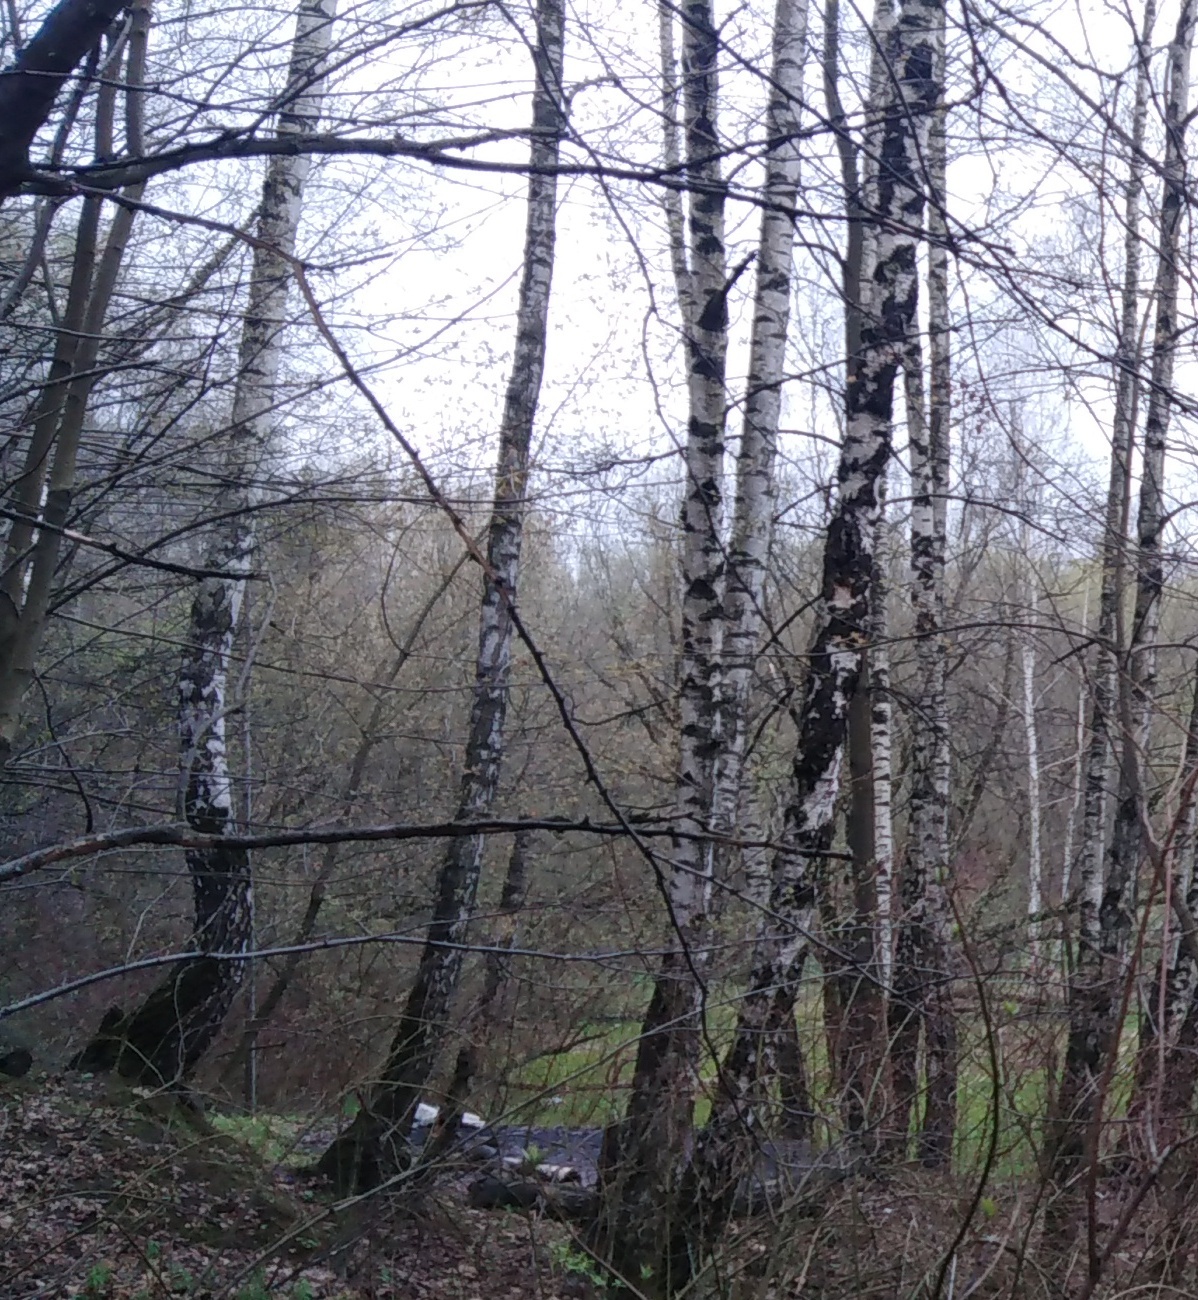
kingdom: Plantae
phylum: Tracheophyta
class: Magnoliopsida
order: Fagales
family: Betulaceae
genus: Betula
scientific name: Betula pendula
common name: Silver birch
